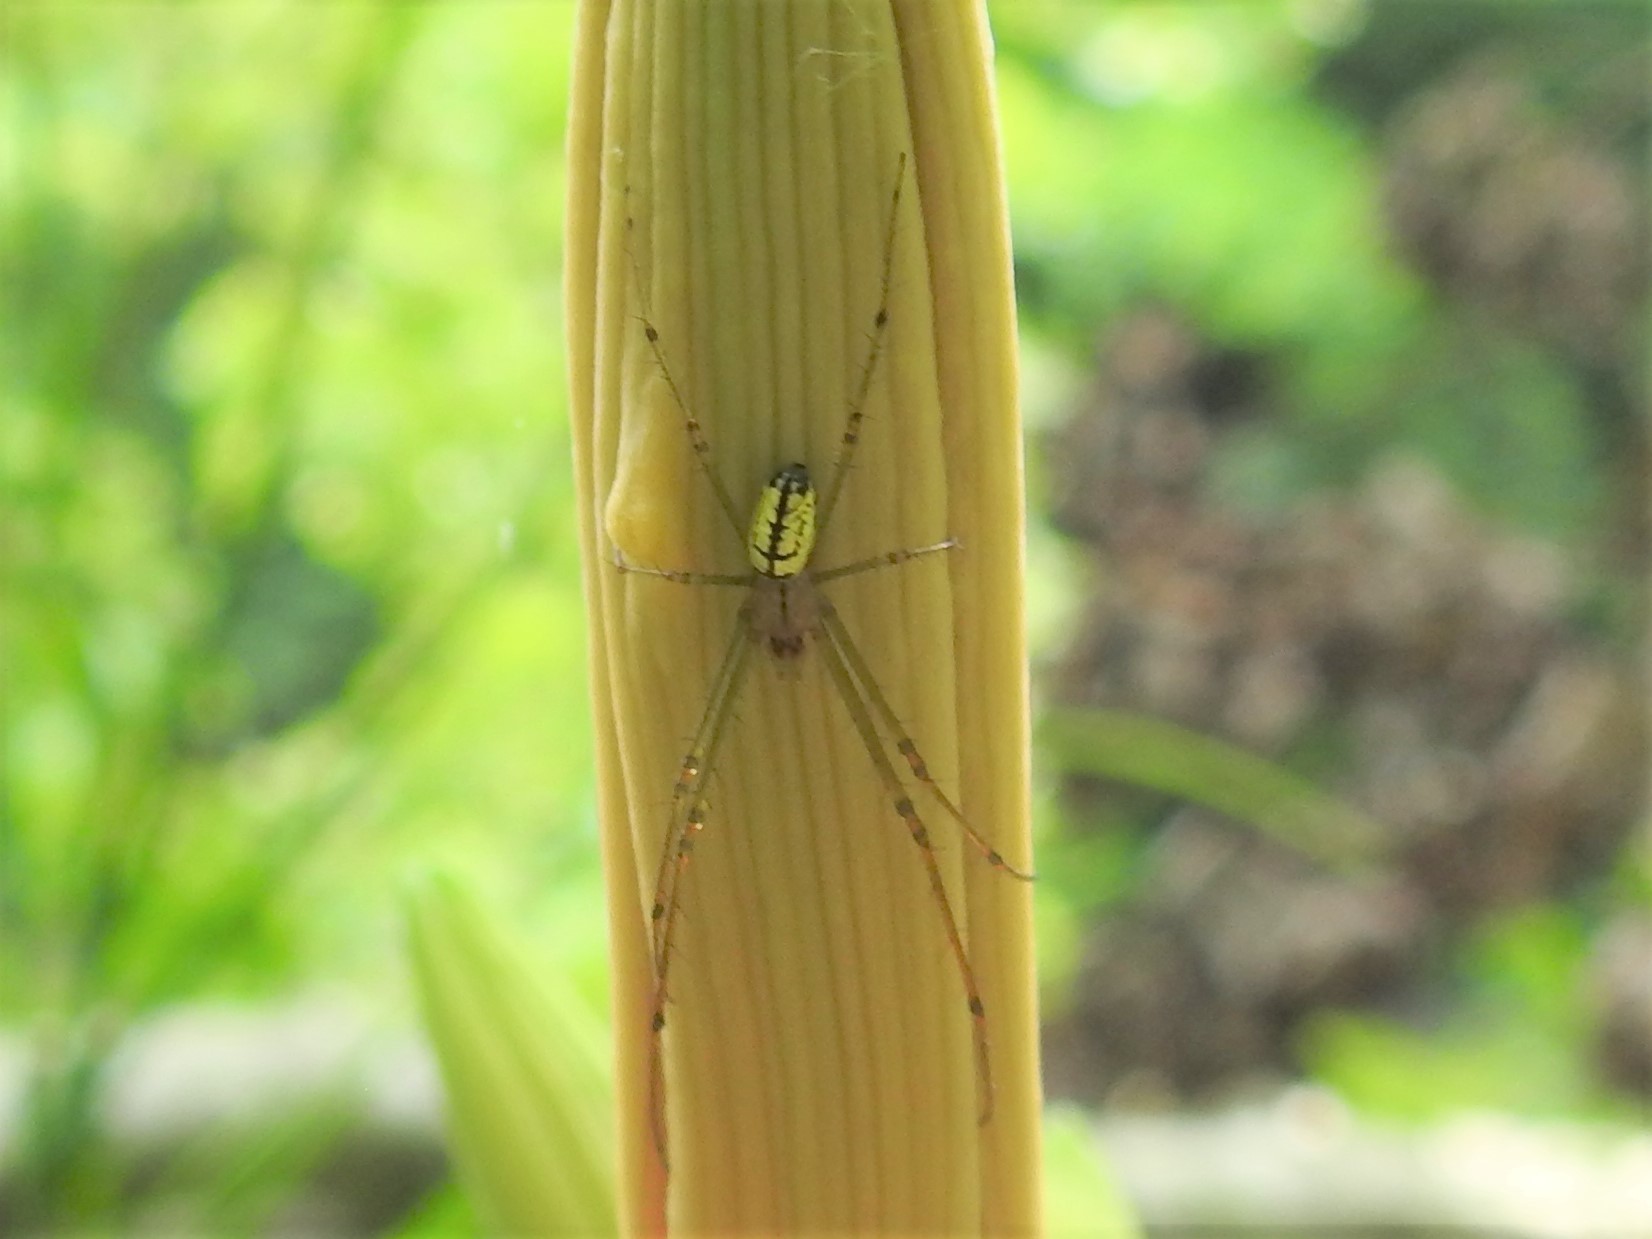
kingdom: Animalia
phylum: Arthropoda
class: Arachnida
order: Araneae
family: Tetragnathidae
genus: Leucauge
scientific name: Leucauge venusta
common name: Longjawed orb weavers
